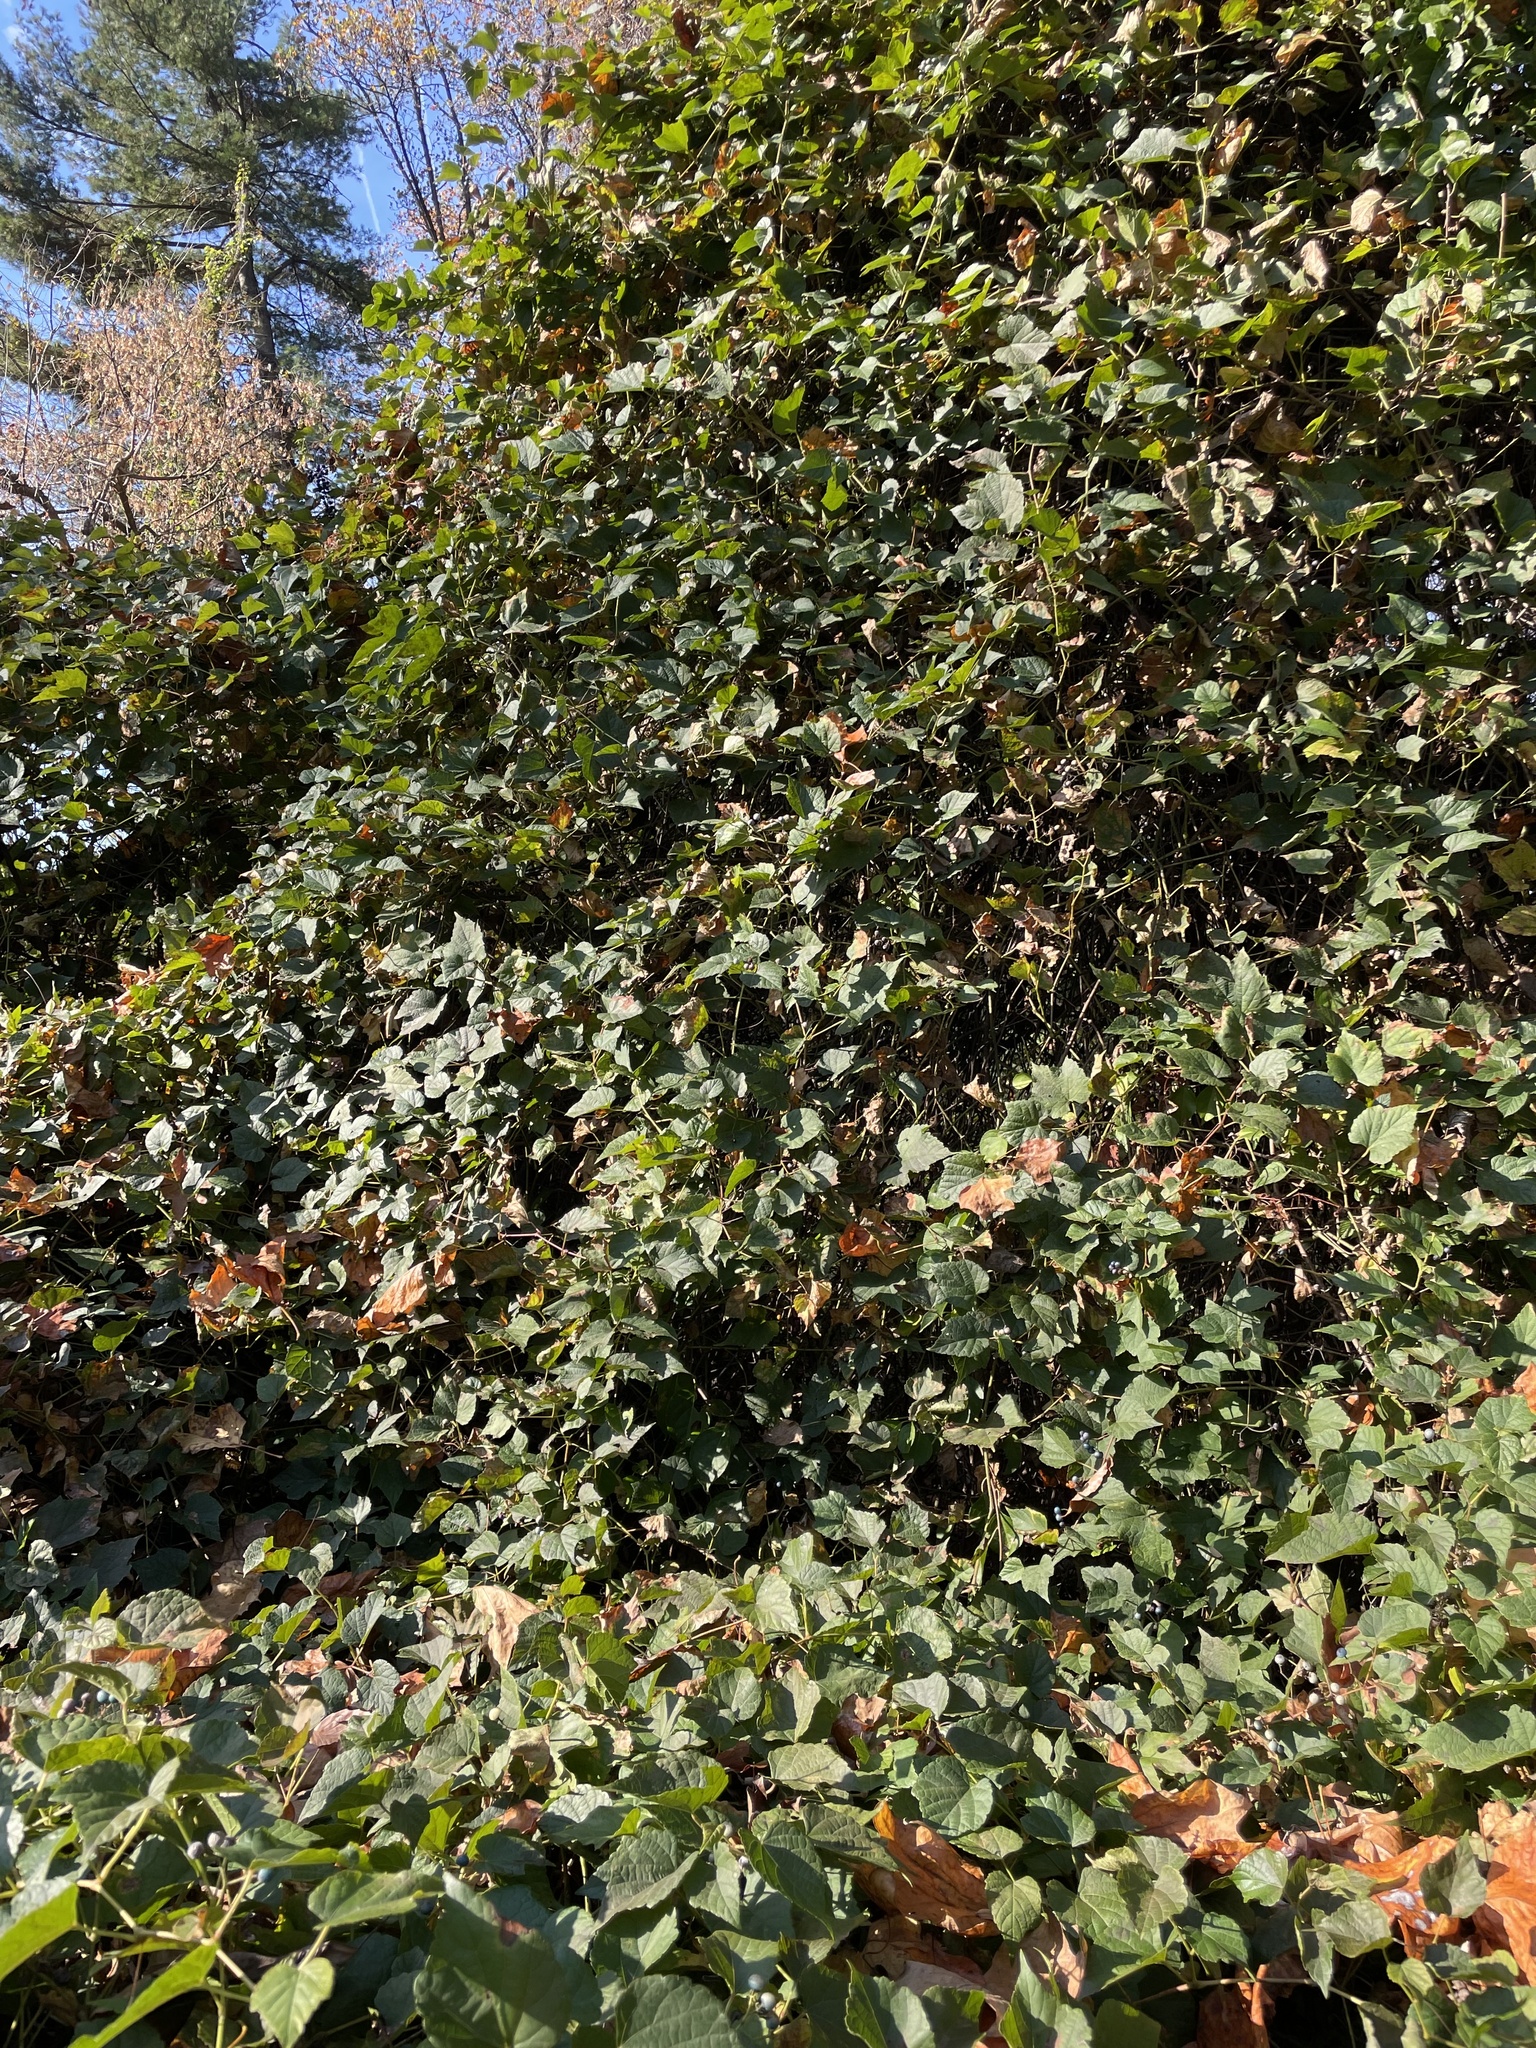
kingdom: Plantae
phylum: Tracheophyta
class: Magnoliopsida
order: Vitales
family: Vitaceae
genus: Ampelopsis
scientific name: Ampelopsis glandulosa
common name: Amur peppervine
